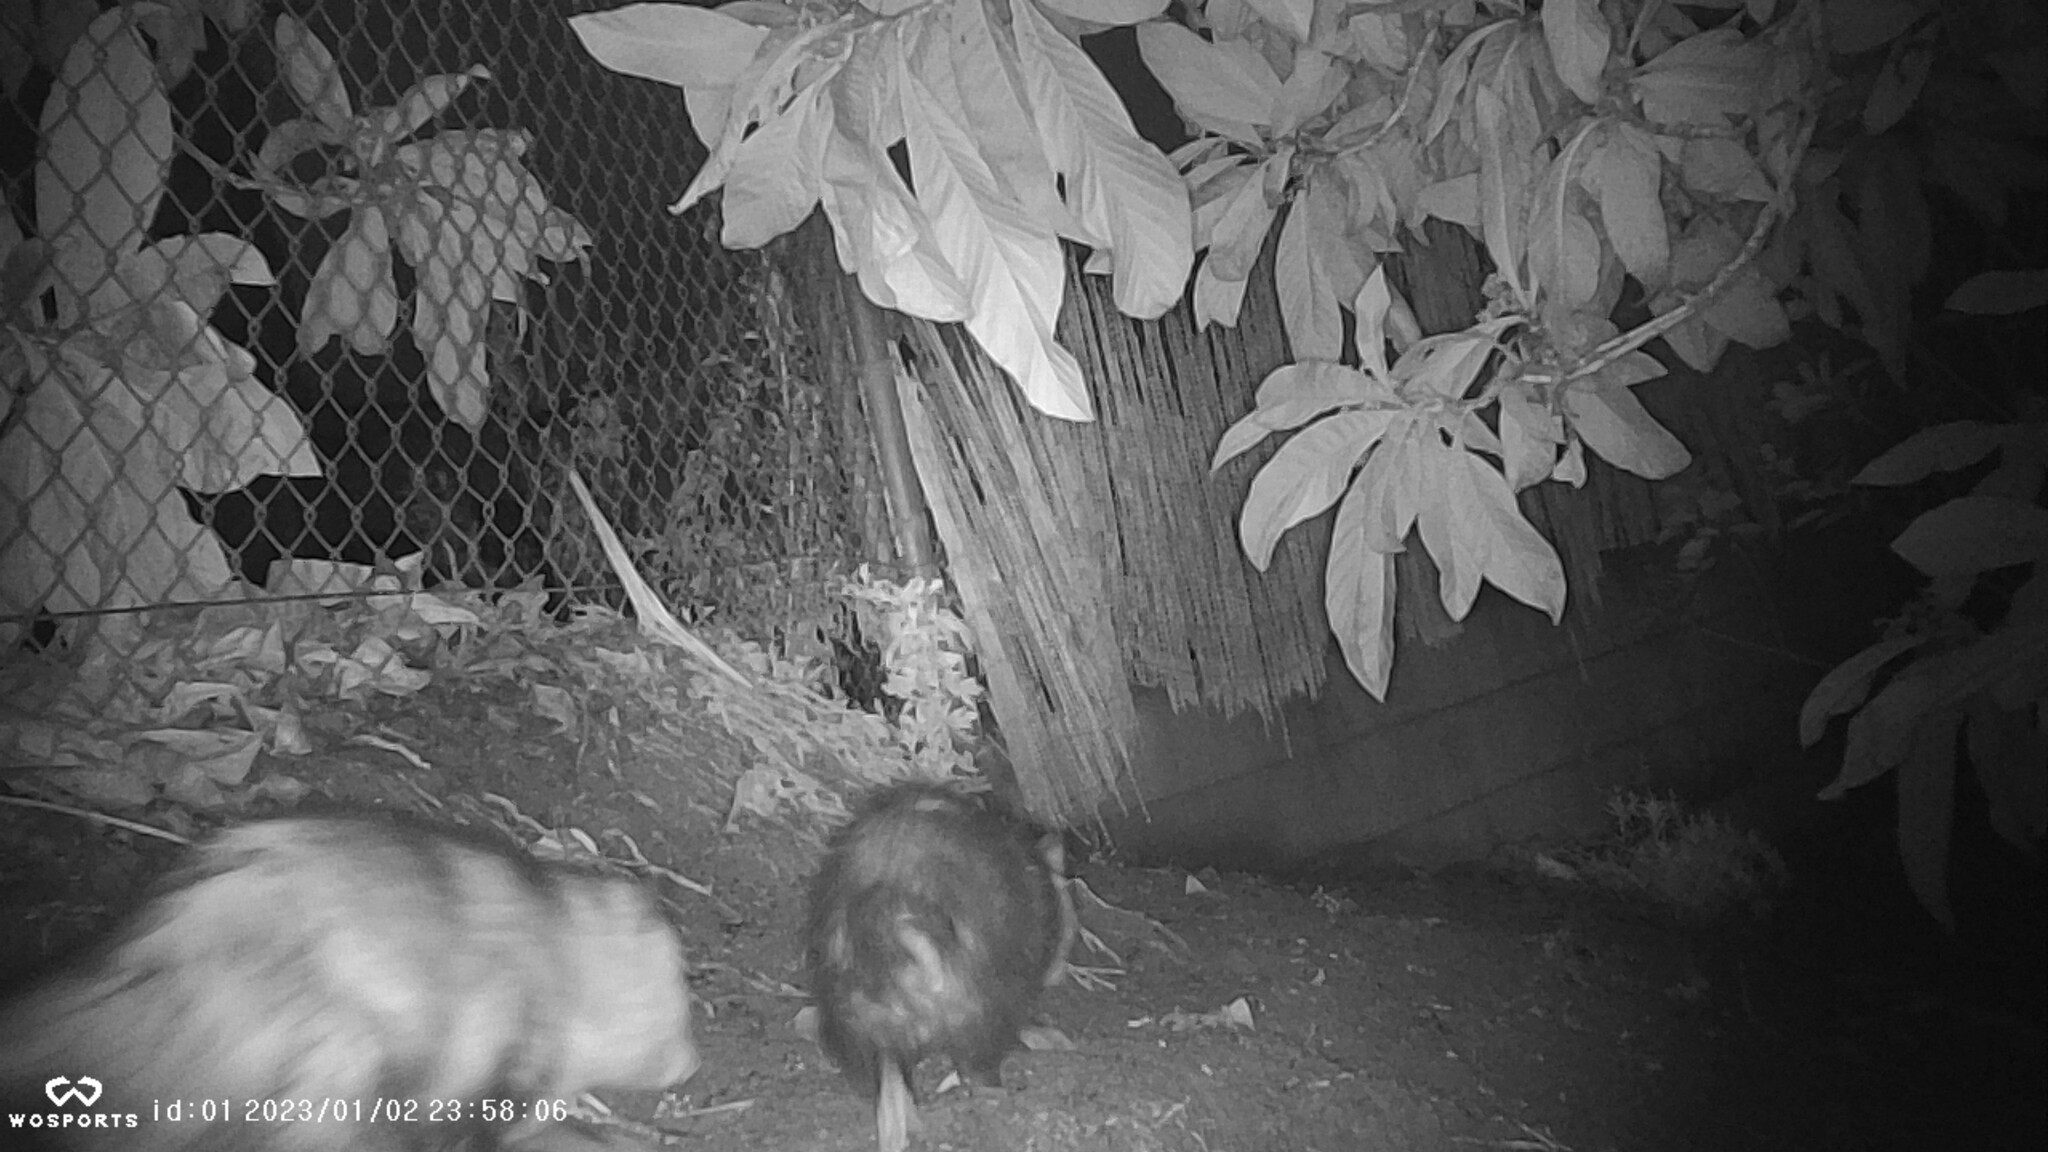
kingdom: Animalia
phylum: Chordata
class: Mammalia
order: Didelphimorphia
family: Didelphidae
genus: Didelphis
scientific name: Didelphis virginiana
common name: Virginia opossum
